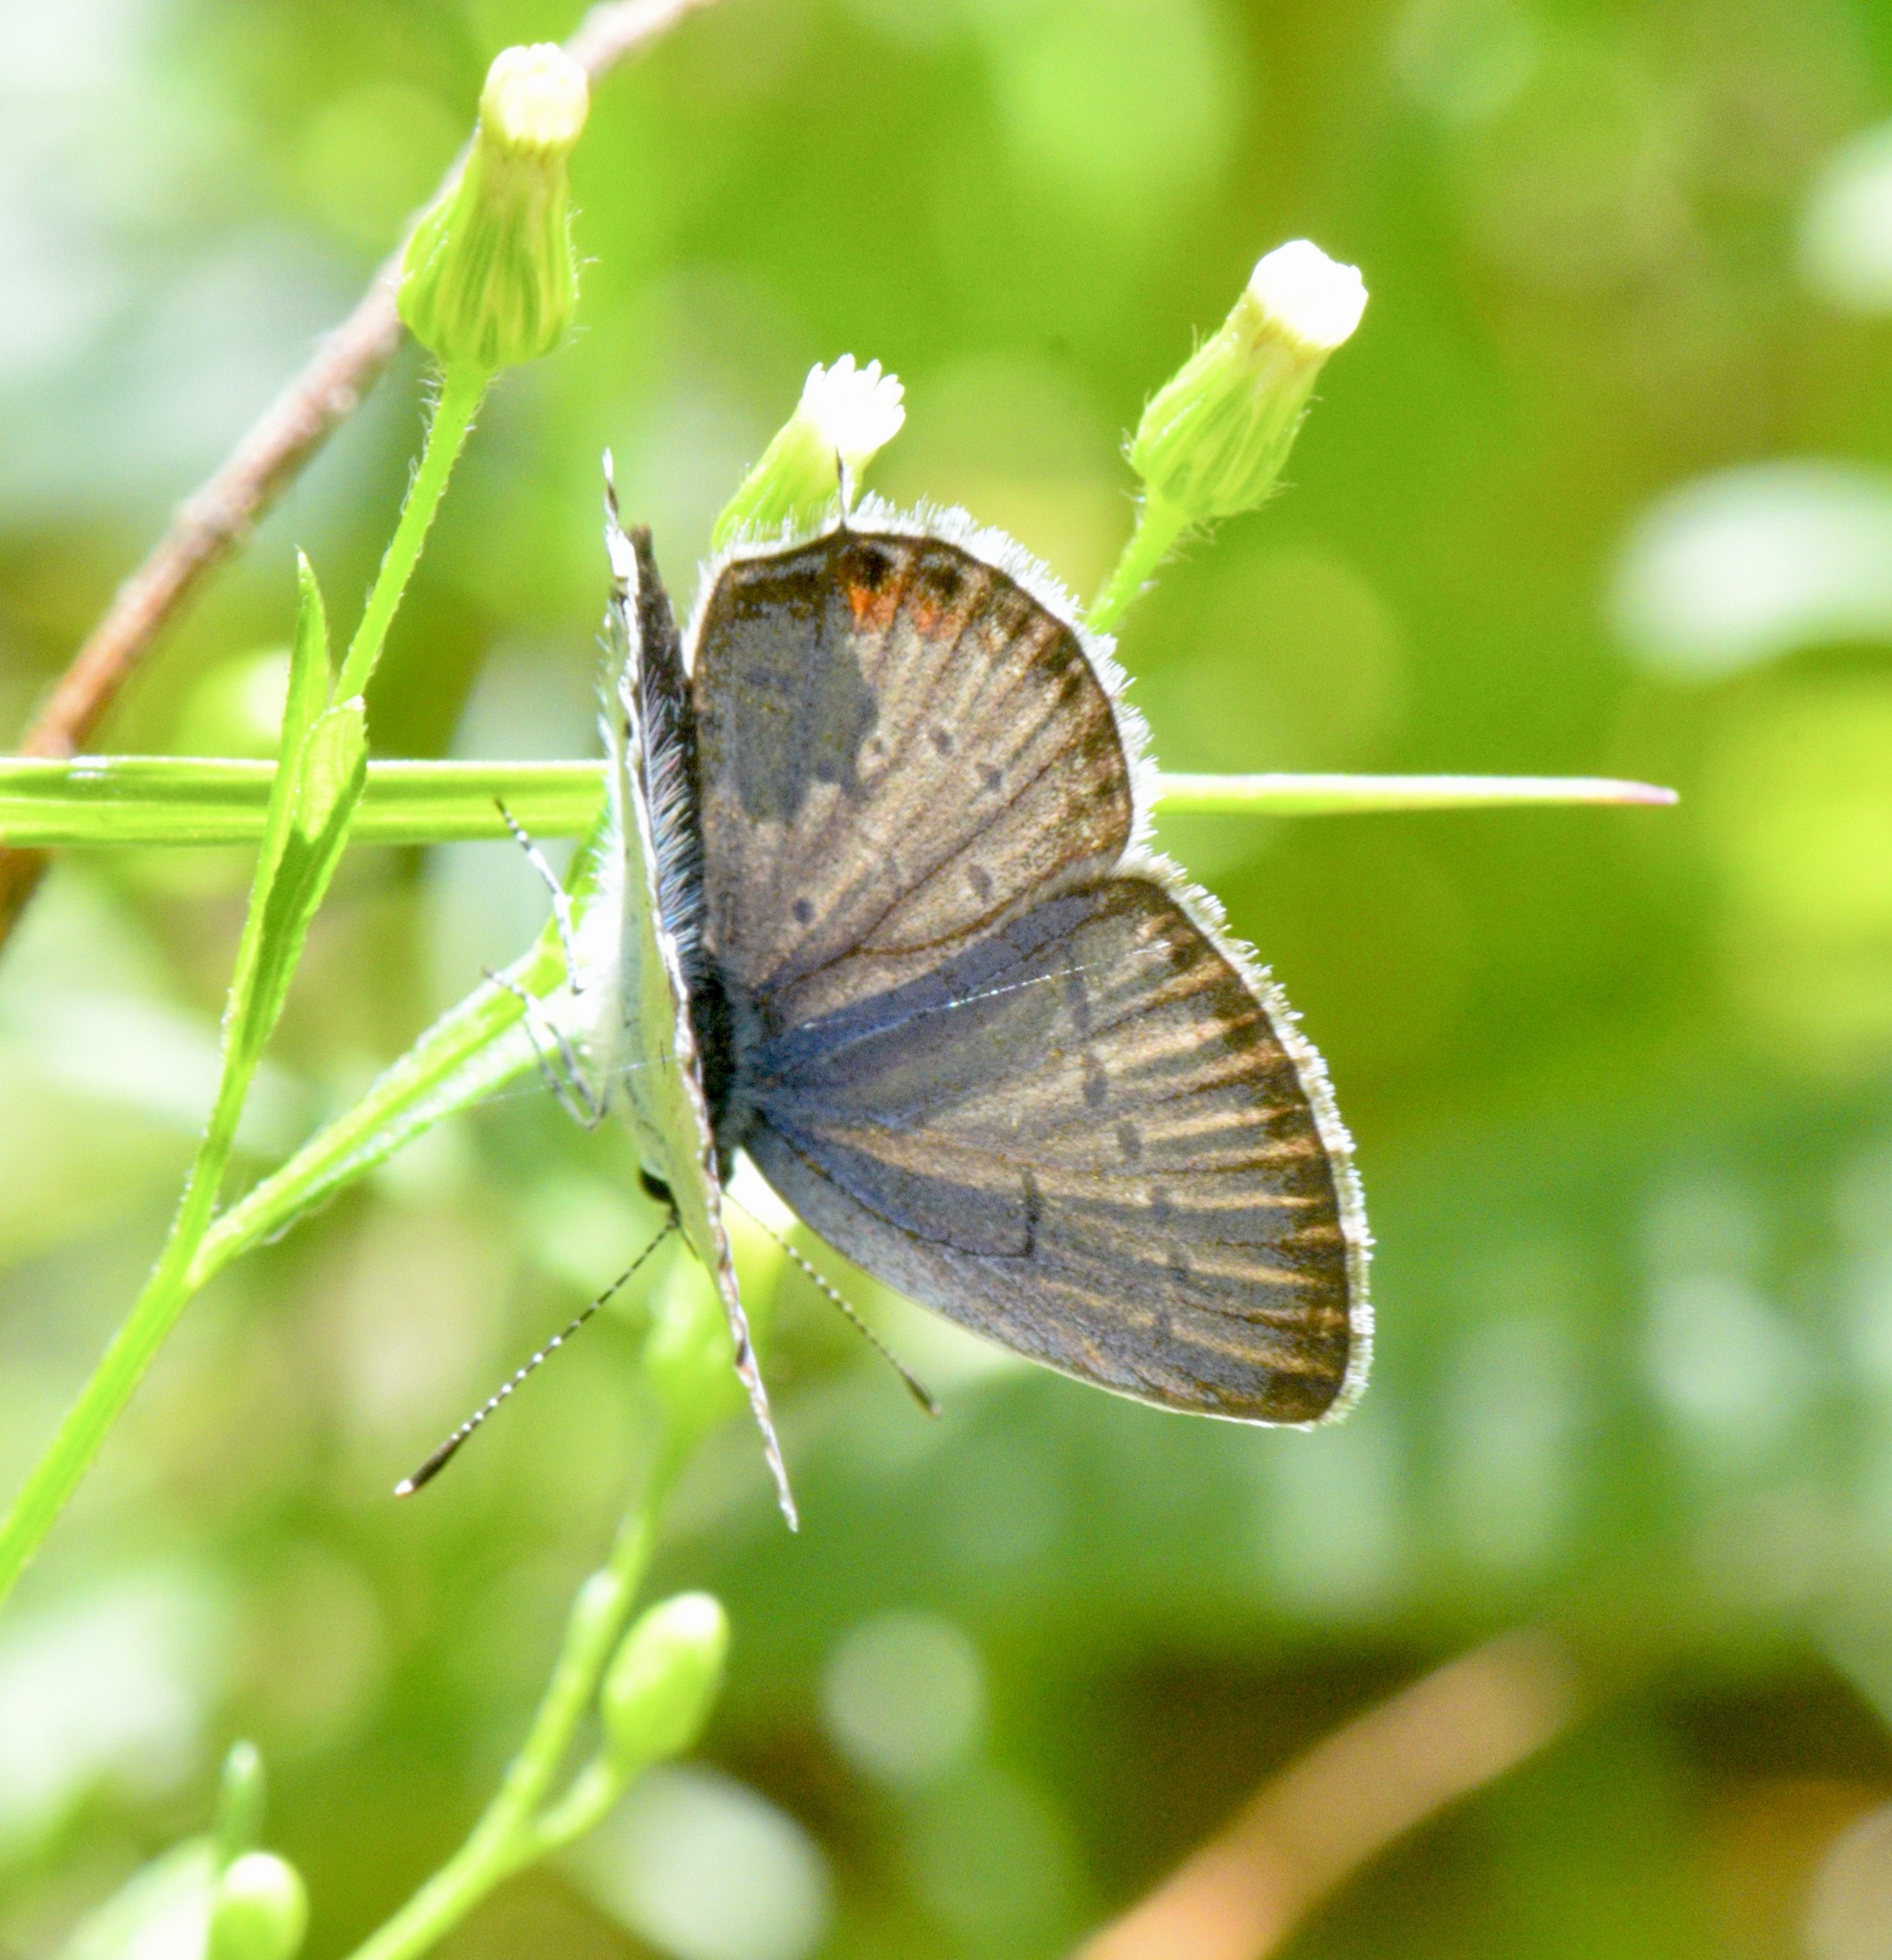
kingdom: Animalia
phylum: Arthropoda
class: Insecta
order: Lepidoptera
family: Lycaenidae
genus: Elkalyce
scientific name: Elkalyce comyntas
